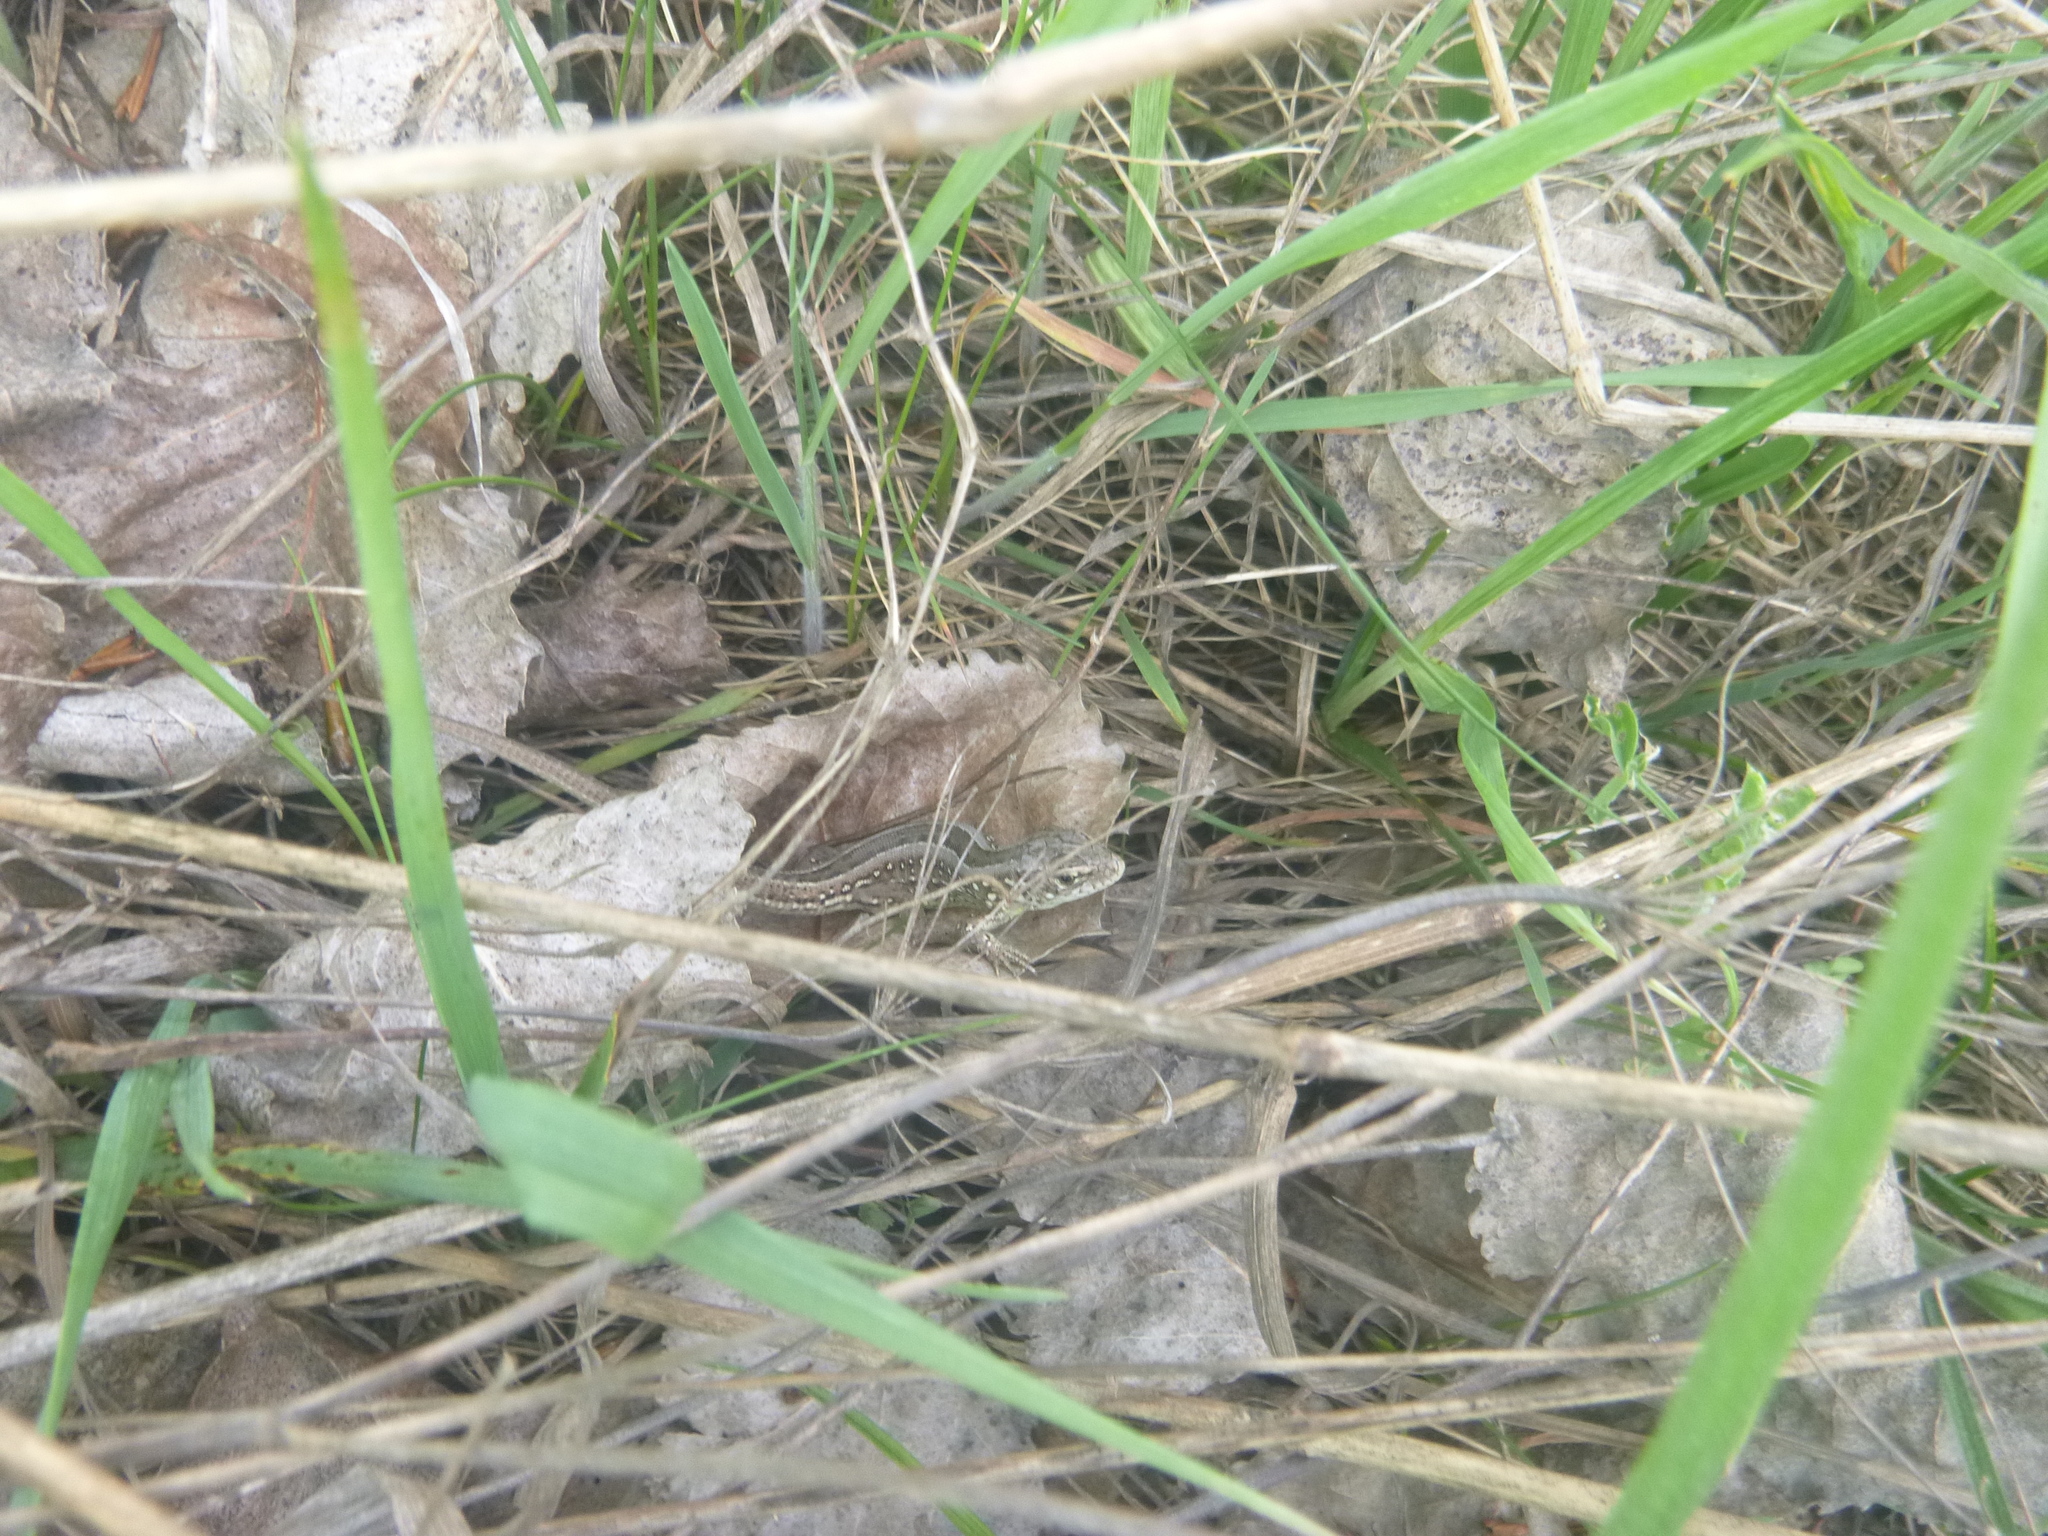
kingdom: Animalia
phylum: Chordata
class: Squamata
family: Lacertidae
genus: Lacerta
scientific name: Lacerta agilis
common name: Sand lizard
